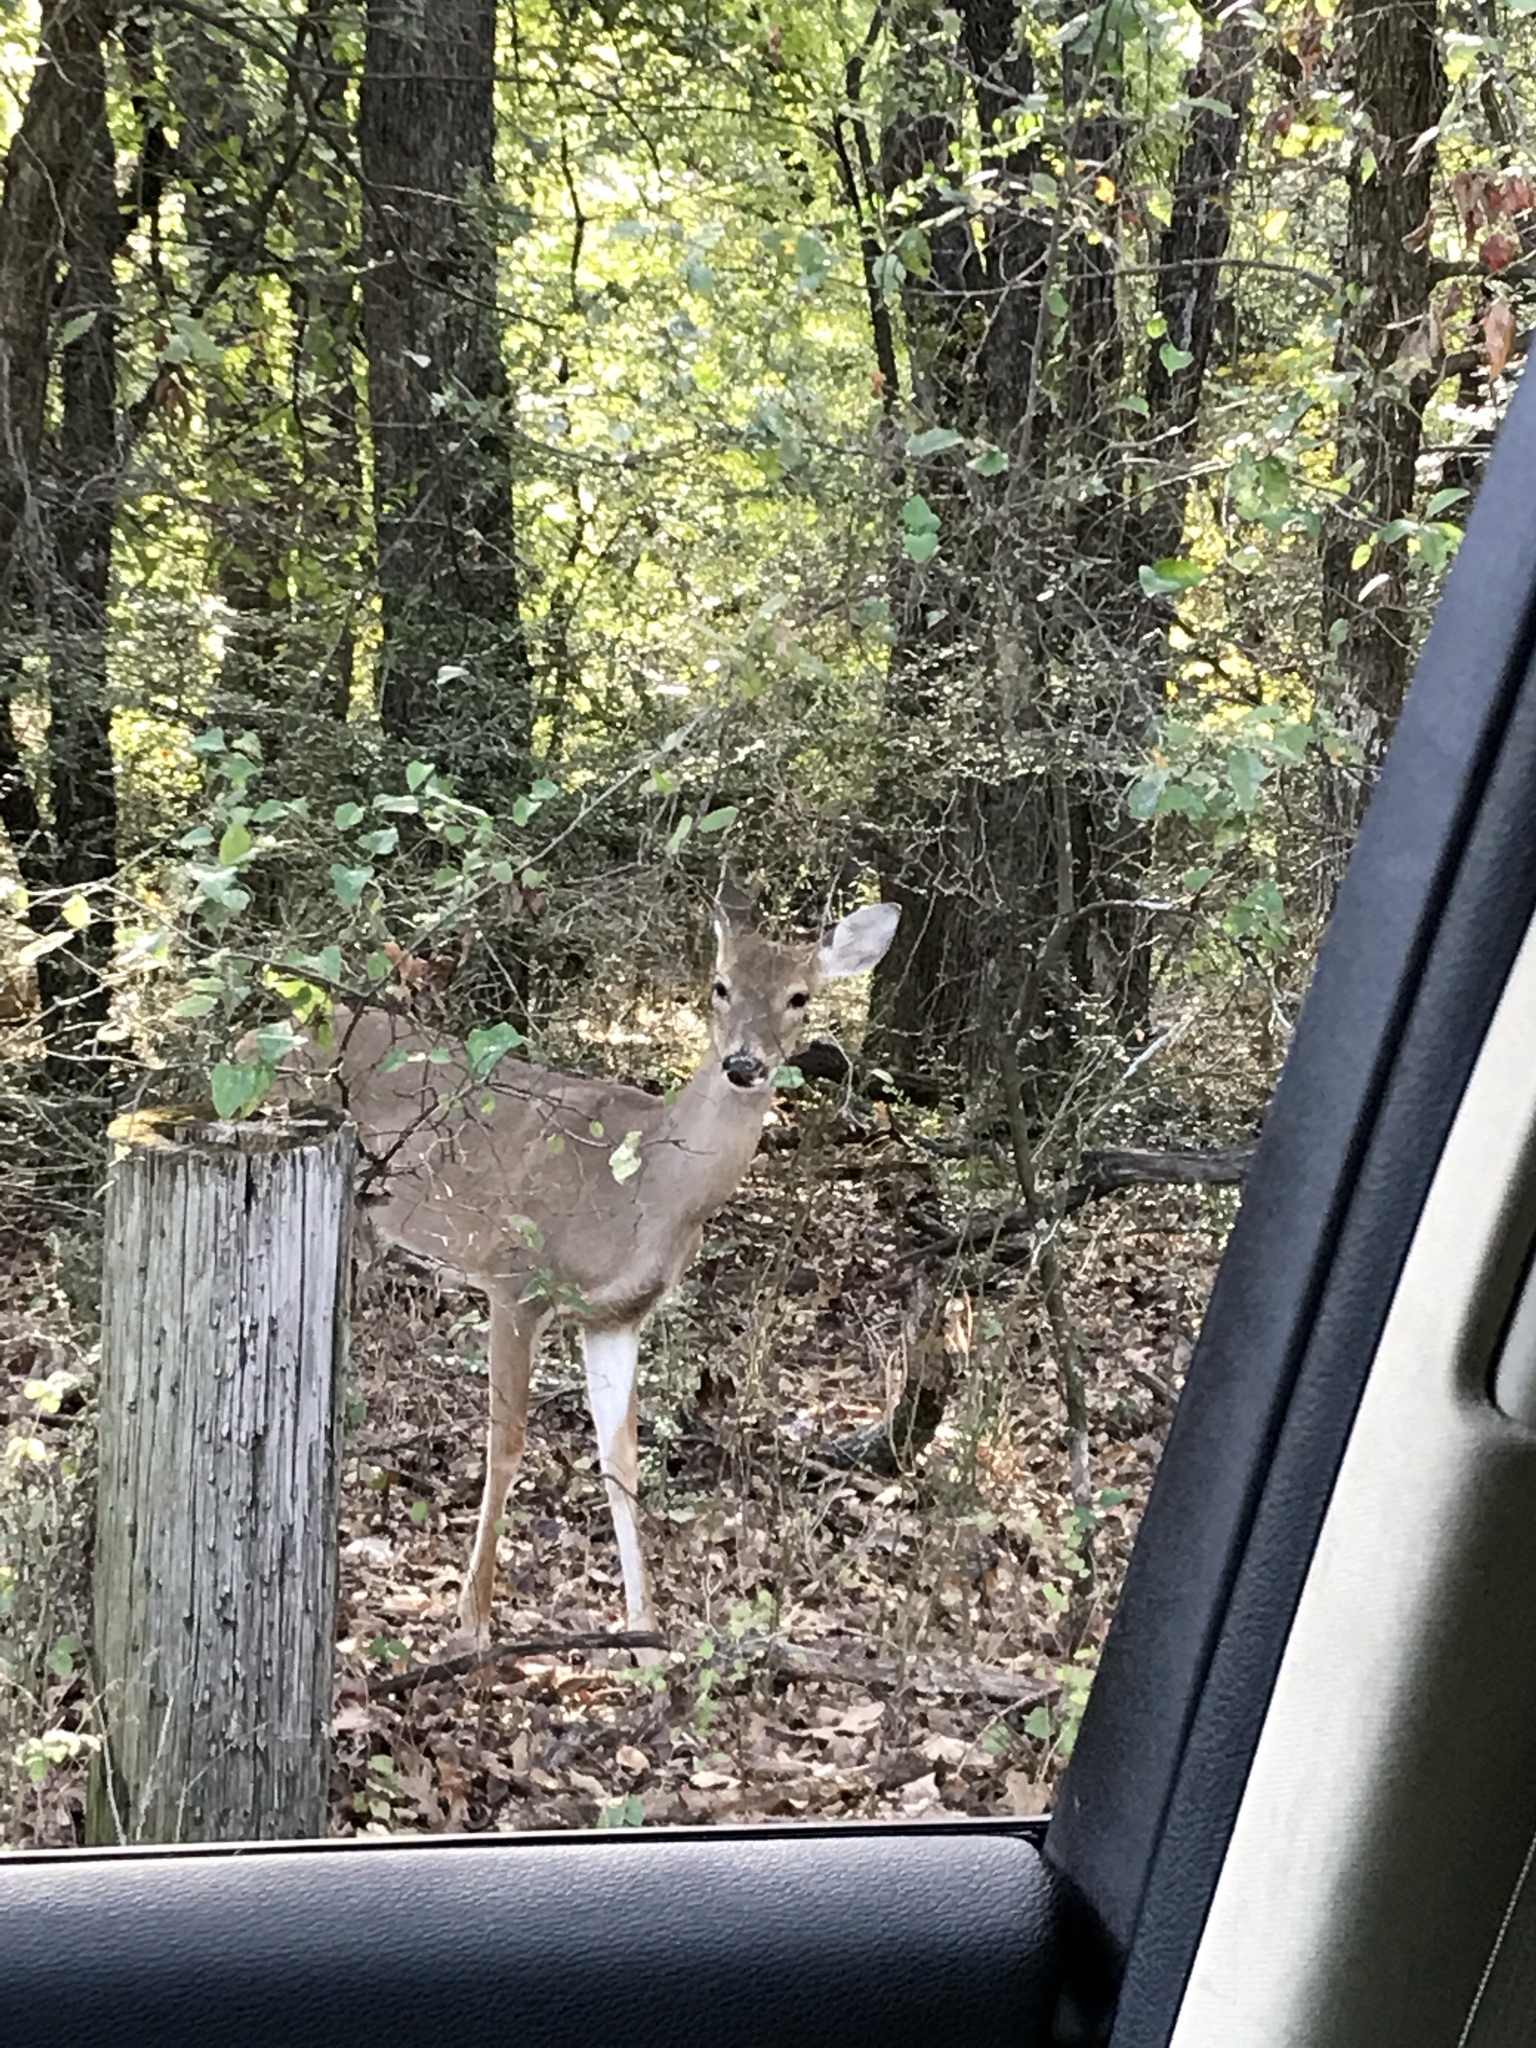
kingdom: Animalia
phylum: Chordata
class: Mammalia
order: Artiodactyla
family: Cervidae
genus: Odocoileus
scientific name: Odocoileus virginianus
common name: White-tailed deer
